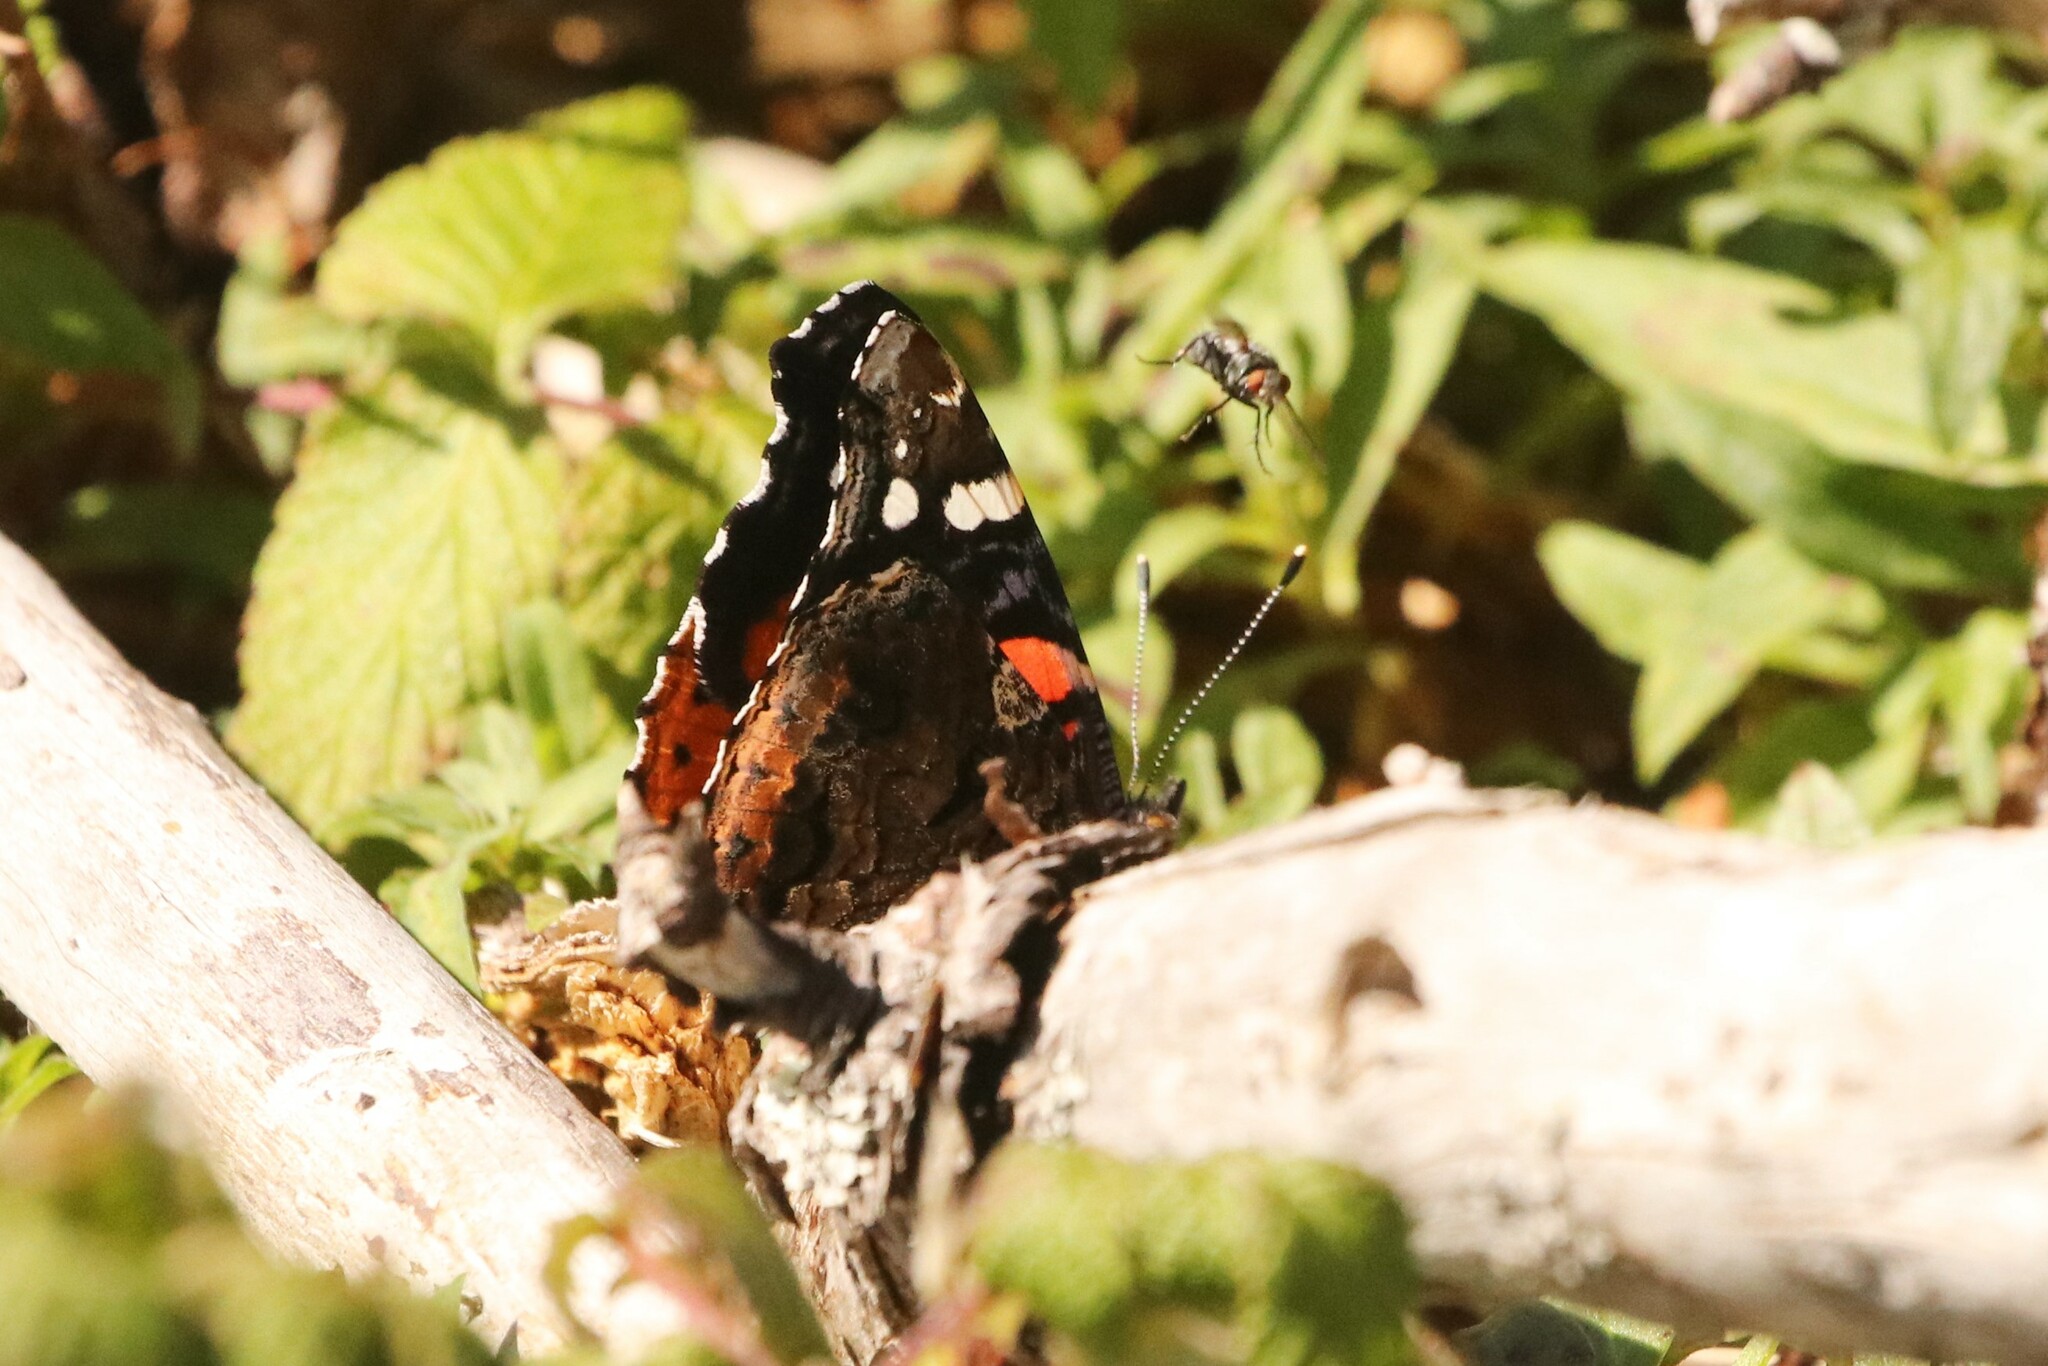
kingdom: Animalia
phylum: Arthropoda
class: Insecta
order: Lepidoptera
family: Nymphalidae
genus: Vanessa
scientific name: Vanessa atalanta
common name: Red admiral
